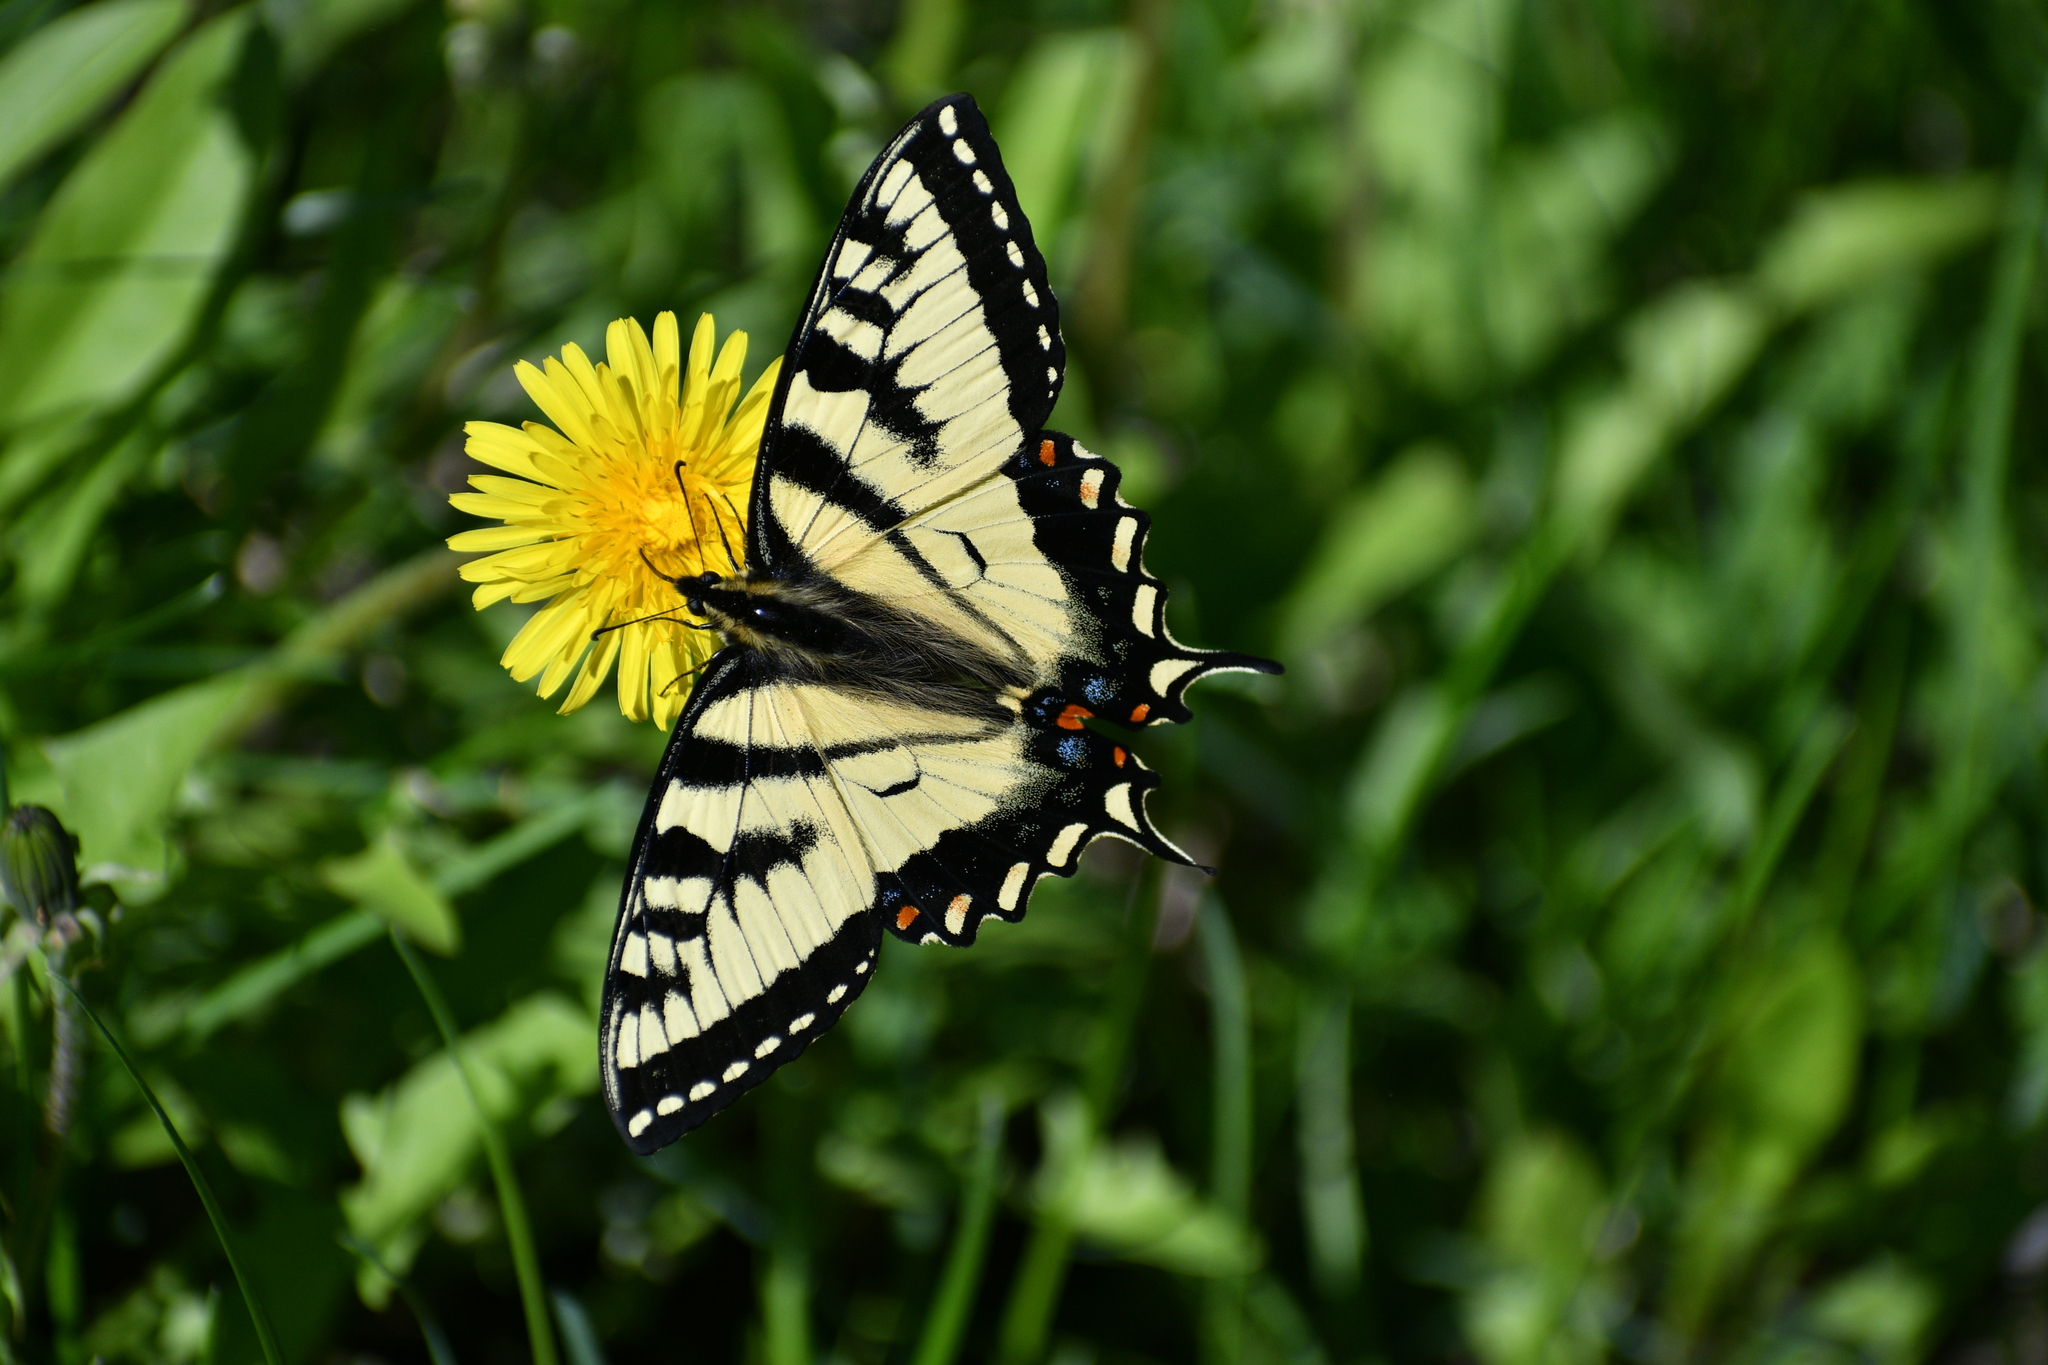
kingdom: Animalia
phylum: Arthropoda
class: Insecta
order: Lepidoptera
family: Papilionidae
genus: Papilio
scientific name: Papilio canadensis
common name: Canadian tiger swallowtail
